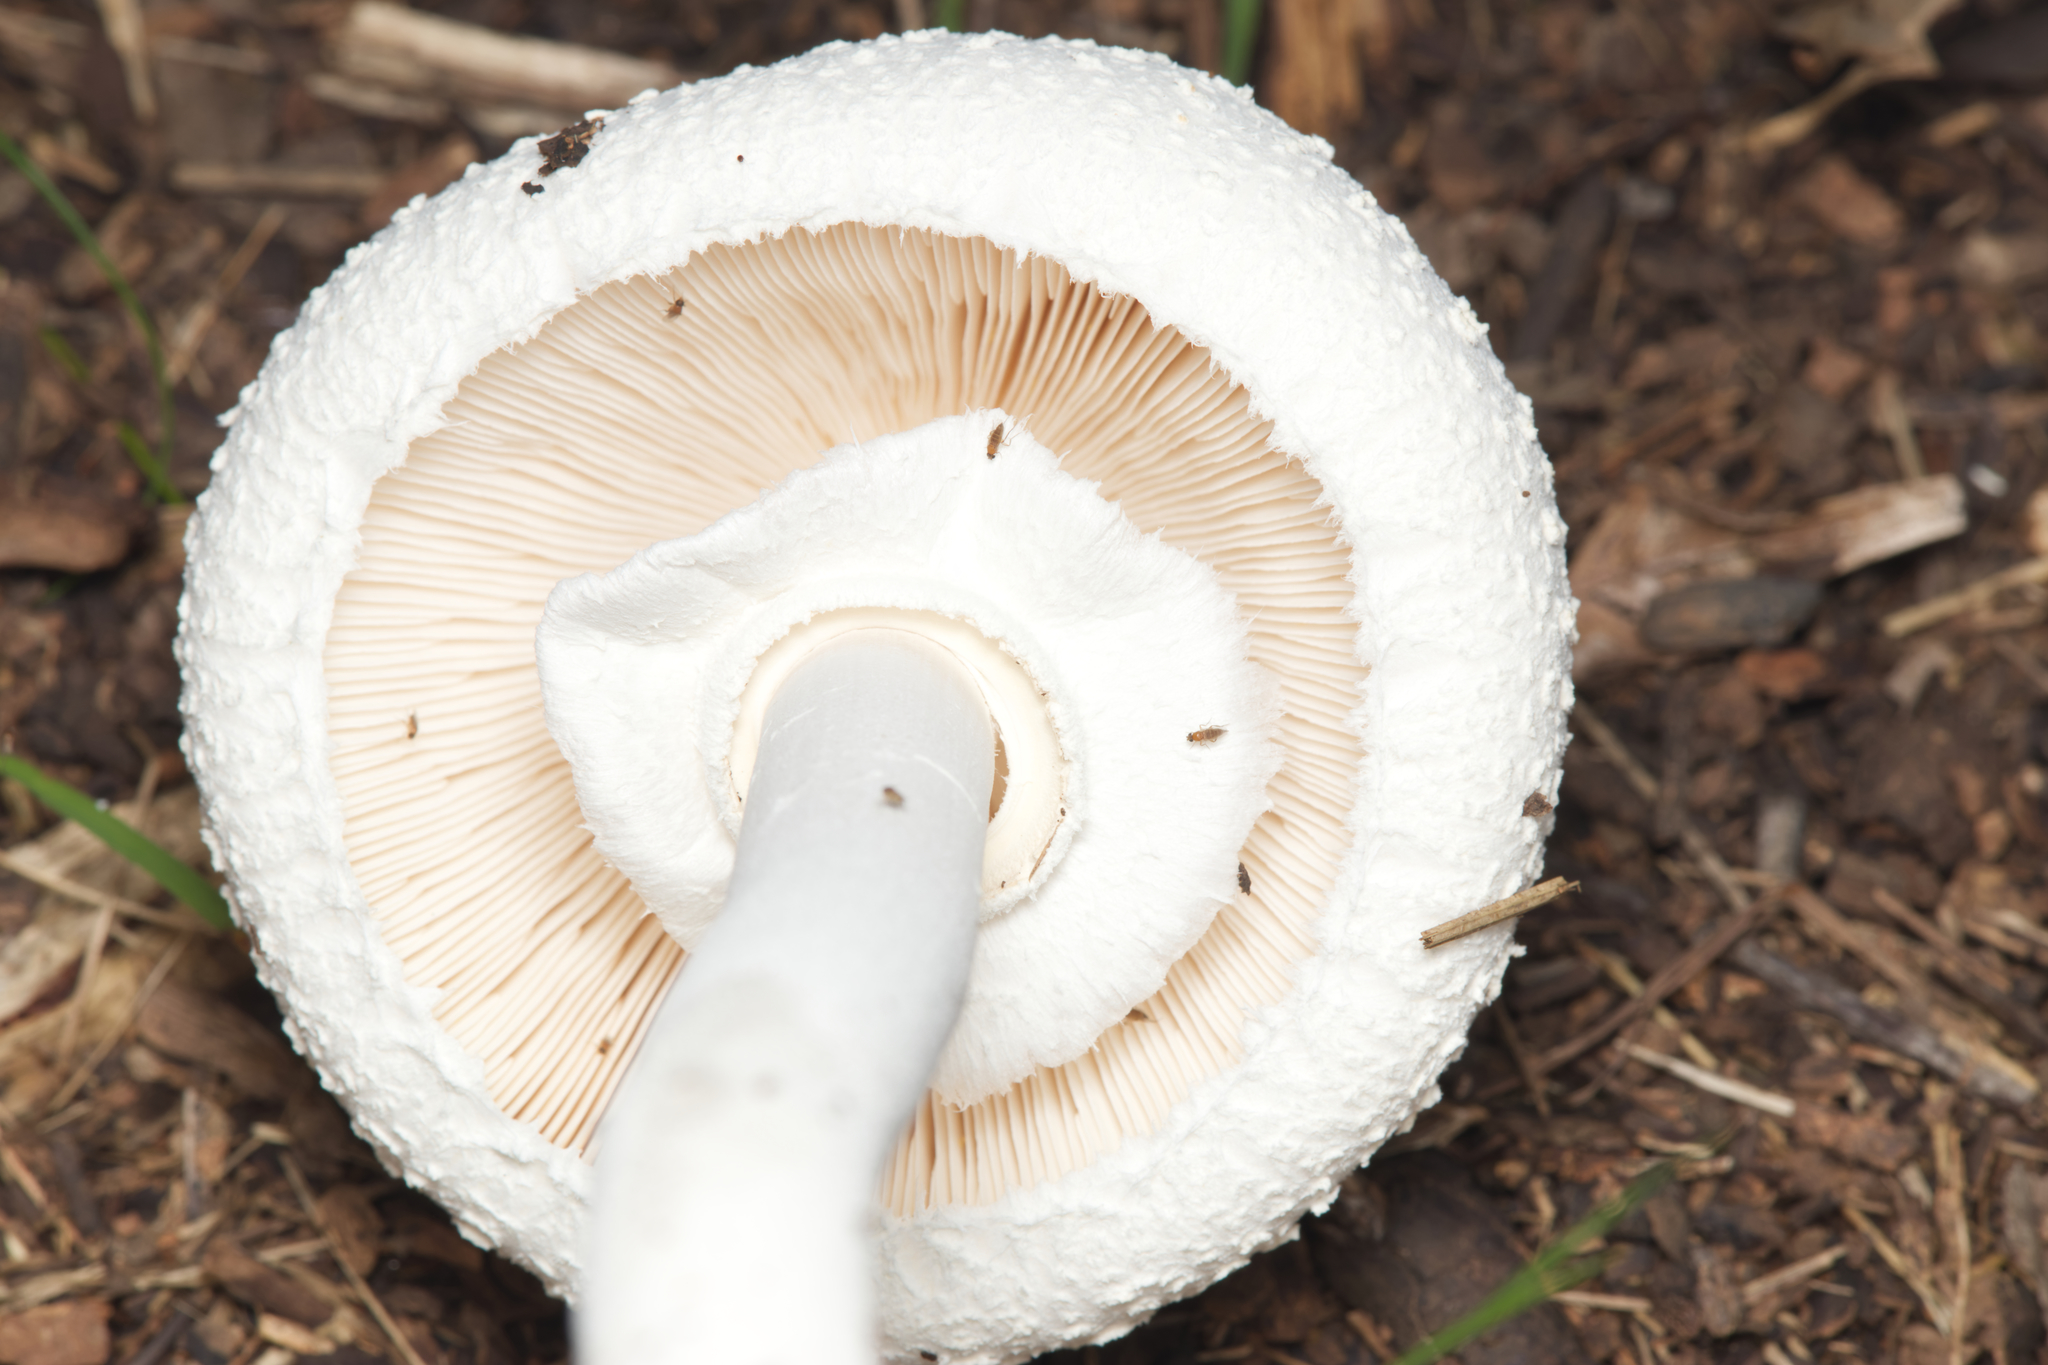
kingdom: Fungi
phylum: Basidiomycota
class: Agaricomycetes
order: Agaricales
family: Agaricaceae
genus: Macrolepiota
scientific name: Macrolepiota dolichaula
